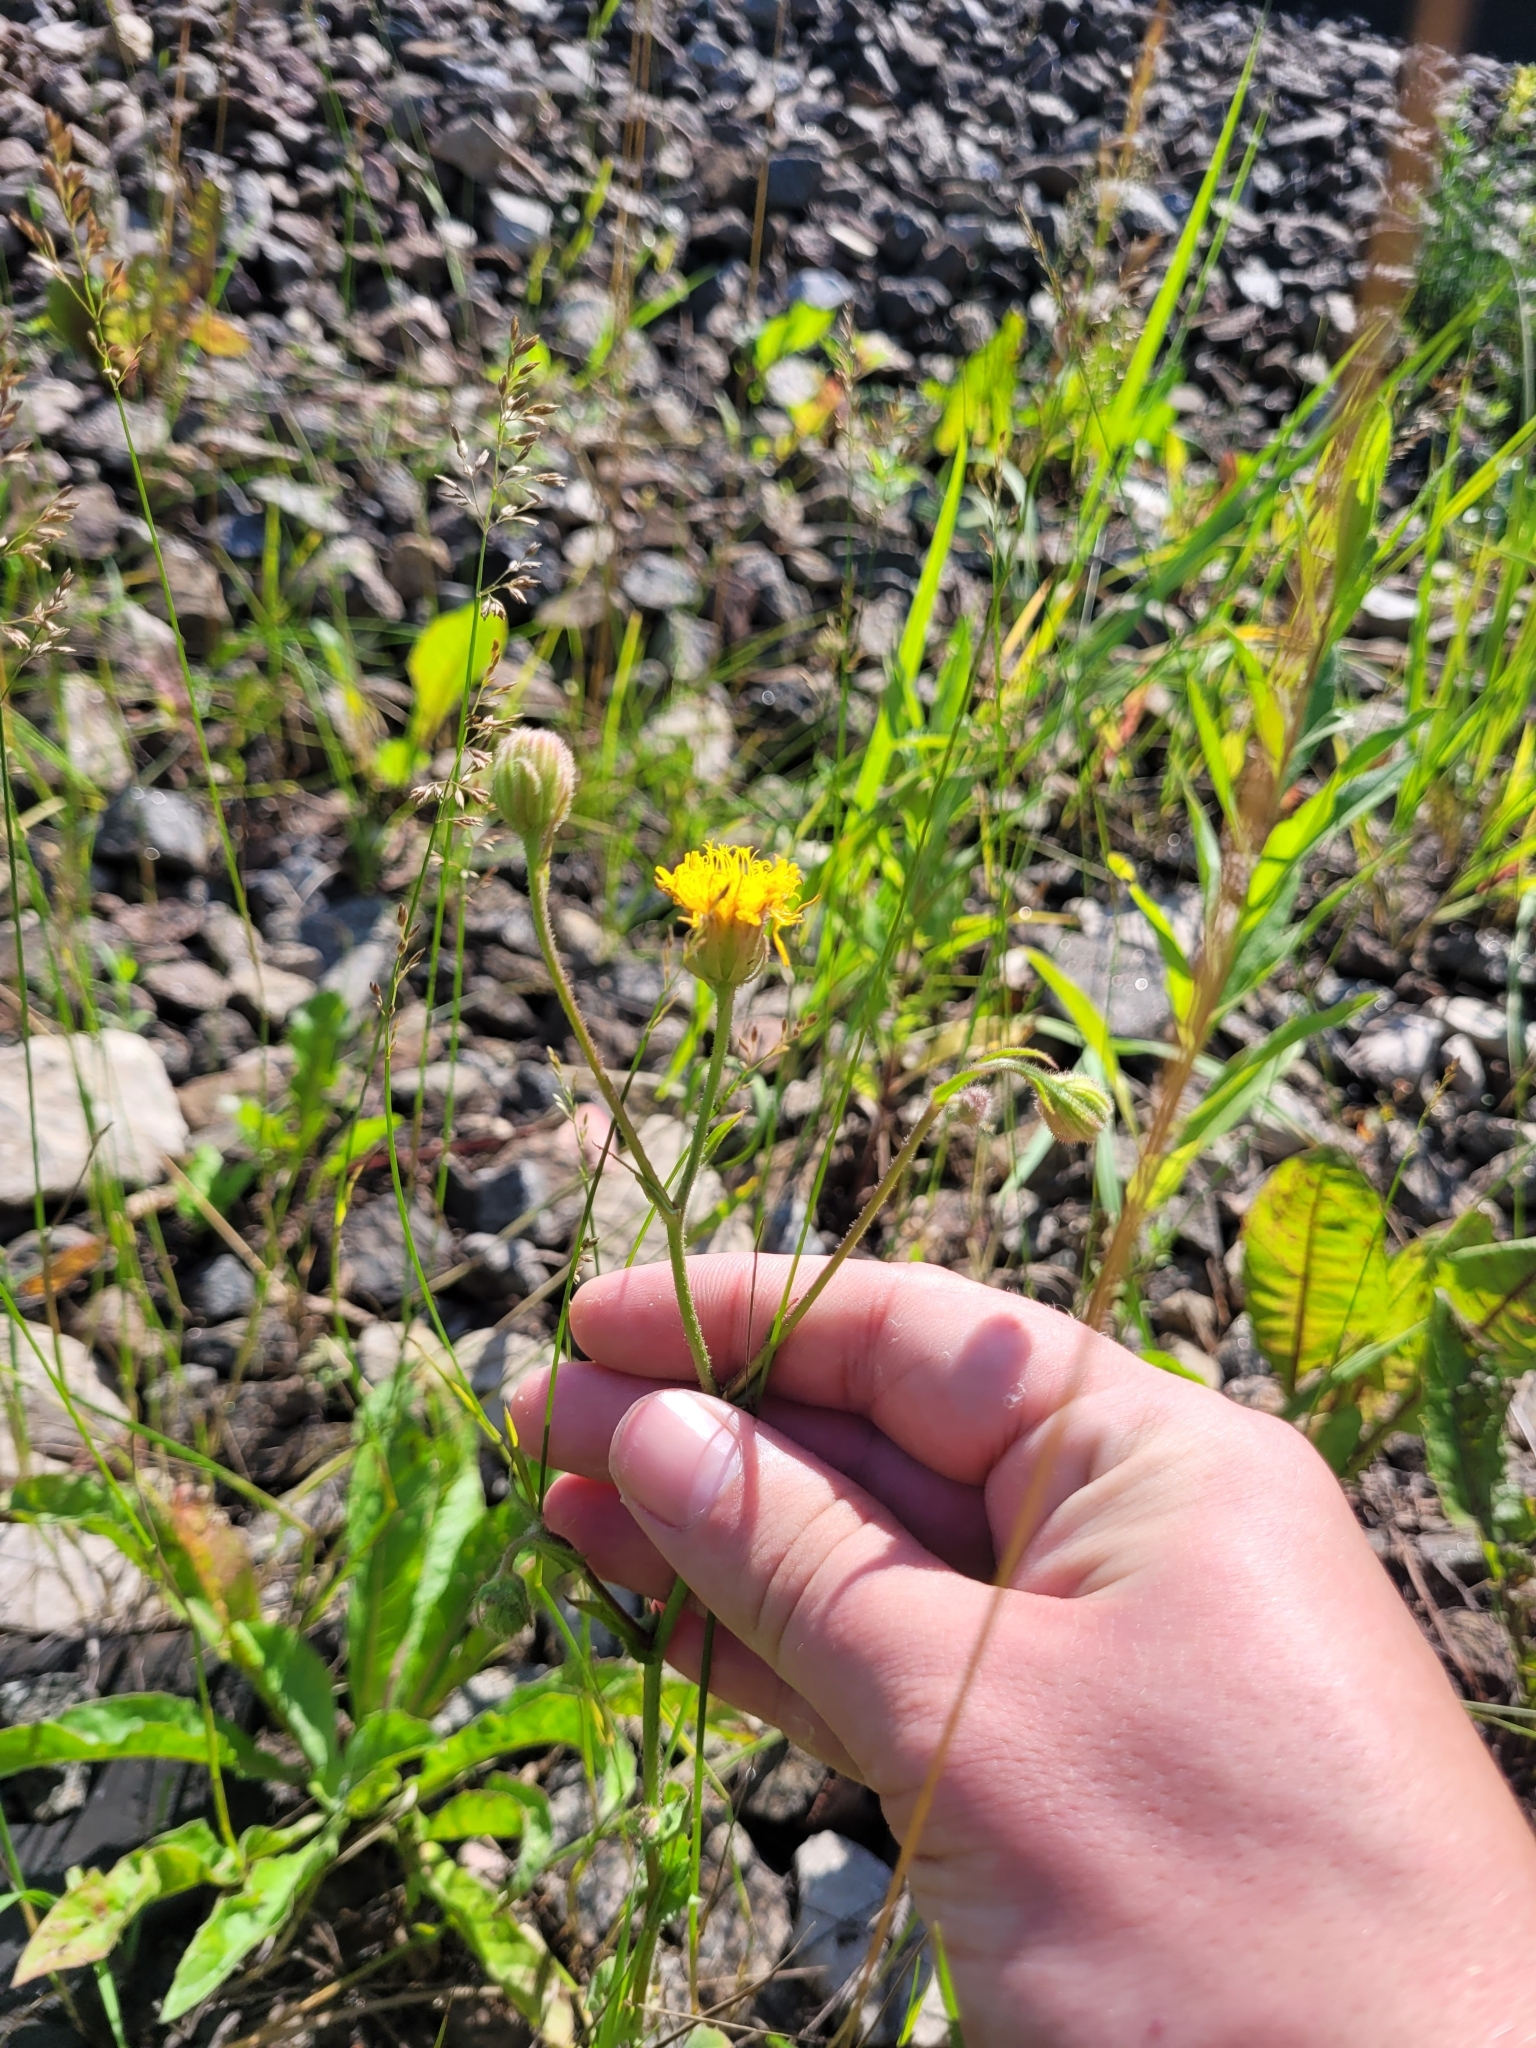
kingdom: Plantae
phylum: Tracheophyta
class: Magnoliopsida
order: Asterales
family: Asteraceae
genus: Crepis
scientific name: Crepis foetida
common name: Stinking hawk's-beard
